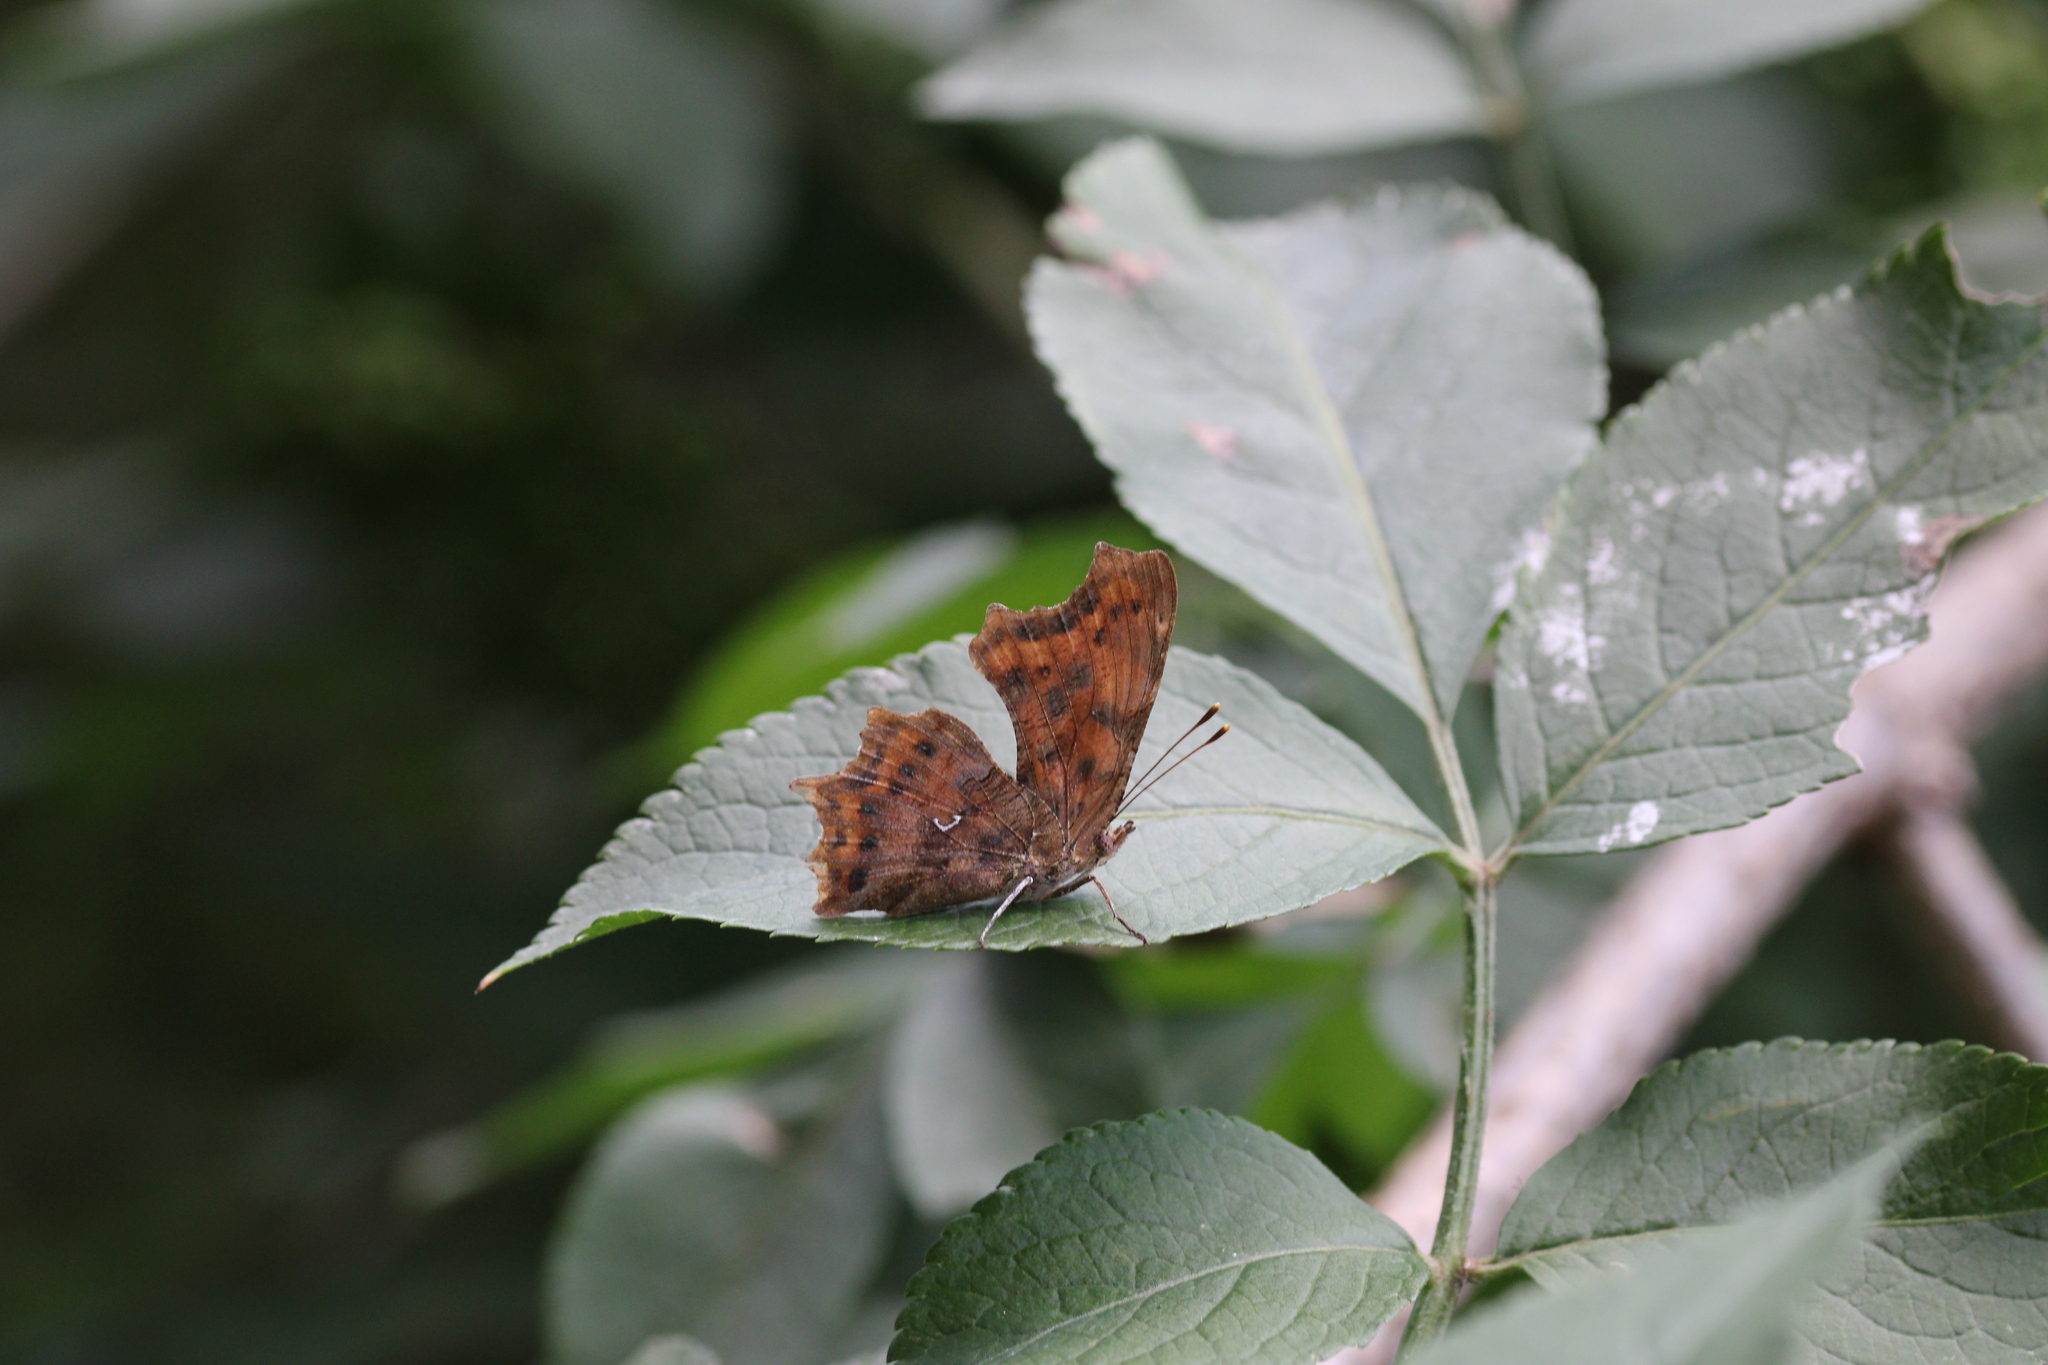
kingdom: Animalia
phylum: Arthropoda
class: Insecta
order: Lepidoptera
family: Nymphalidae
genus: Polygonia
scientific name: Polygonia c-album
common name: Comma
